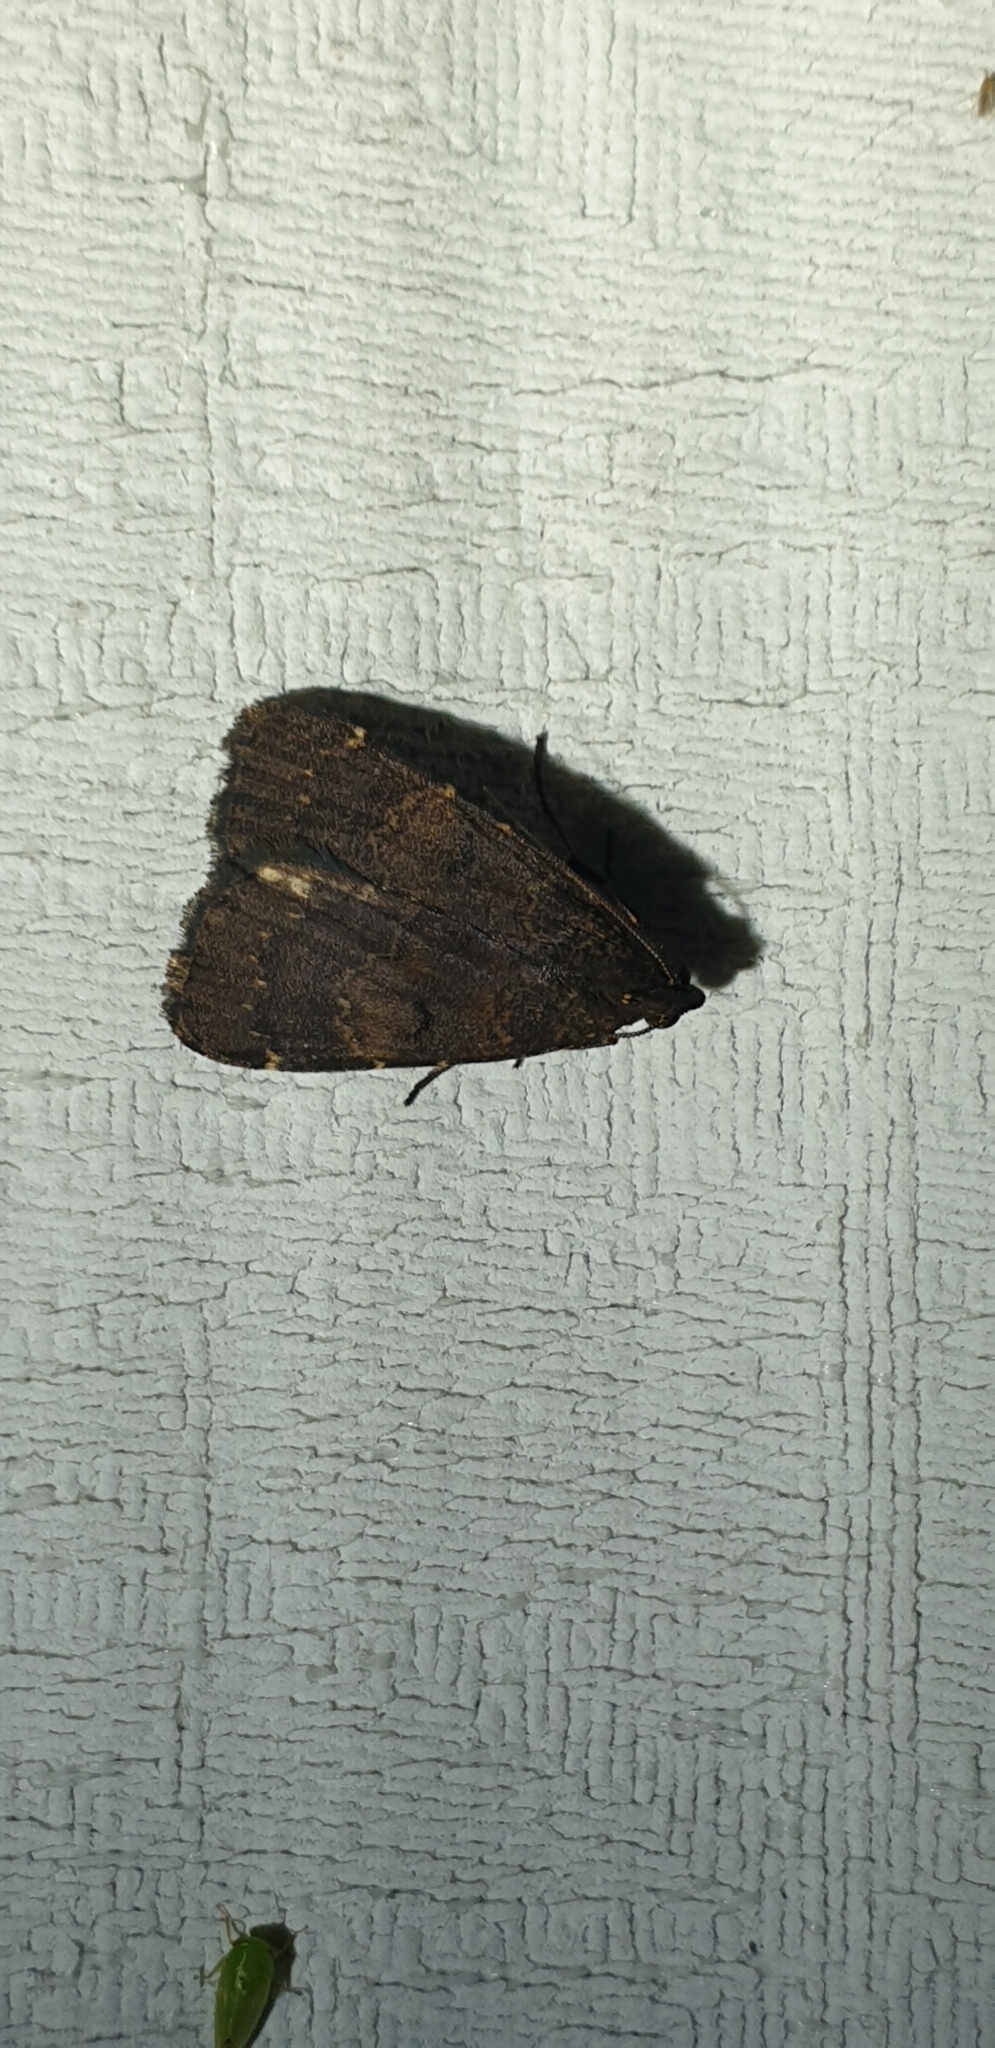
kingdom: Animalia
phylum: Arthropoda
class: Insecta
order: Lepidoptera
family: Erebidae
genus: Hydrillodes
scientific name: Hydrillodes funestalis
